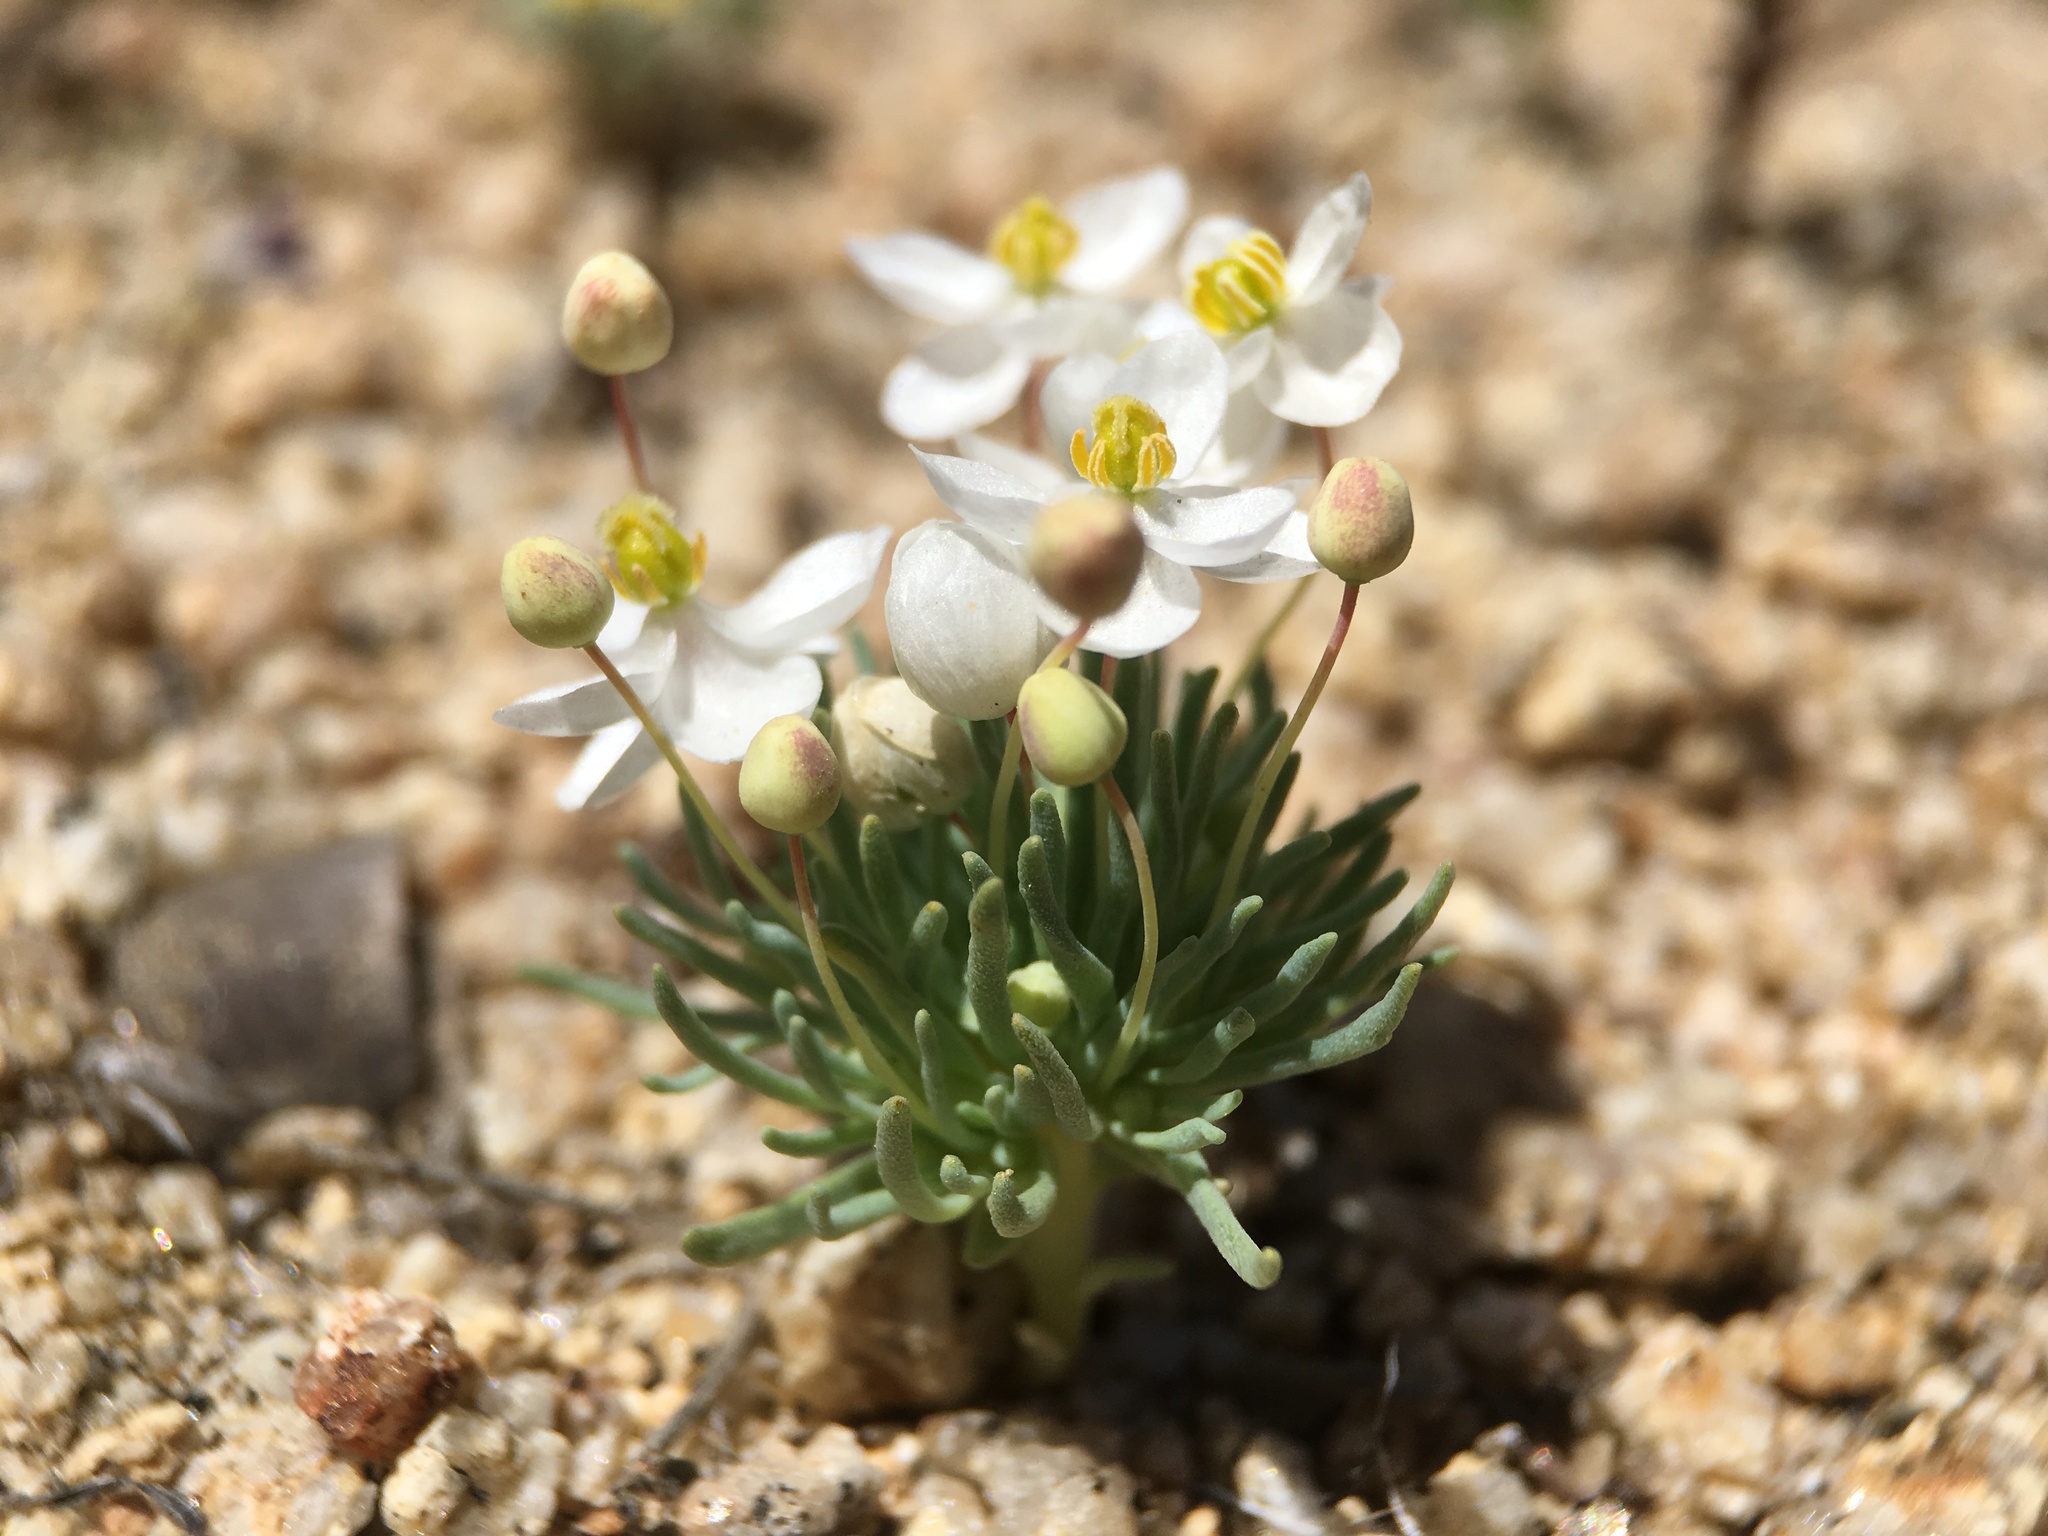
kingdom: Plantae
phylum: Tracheophyta
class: Magnoliopsida
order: Ranunculales
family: Papaveraceae
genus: Canbya
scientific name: Canbya candida
